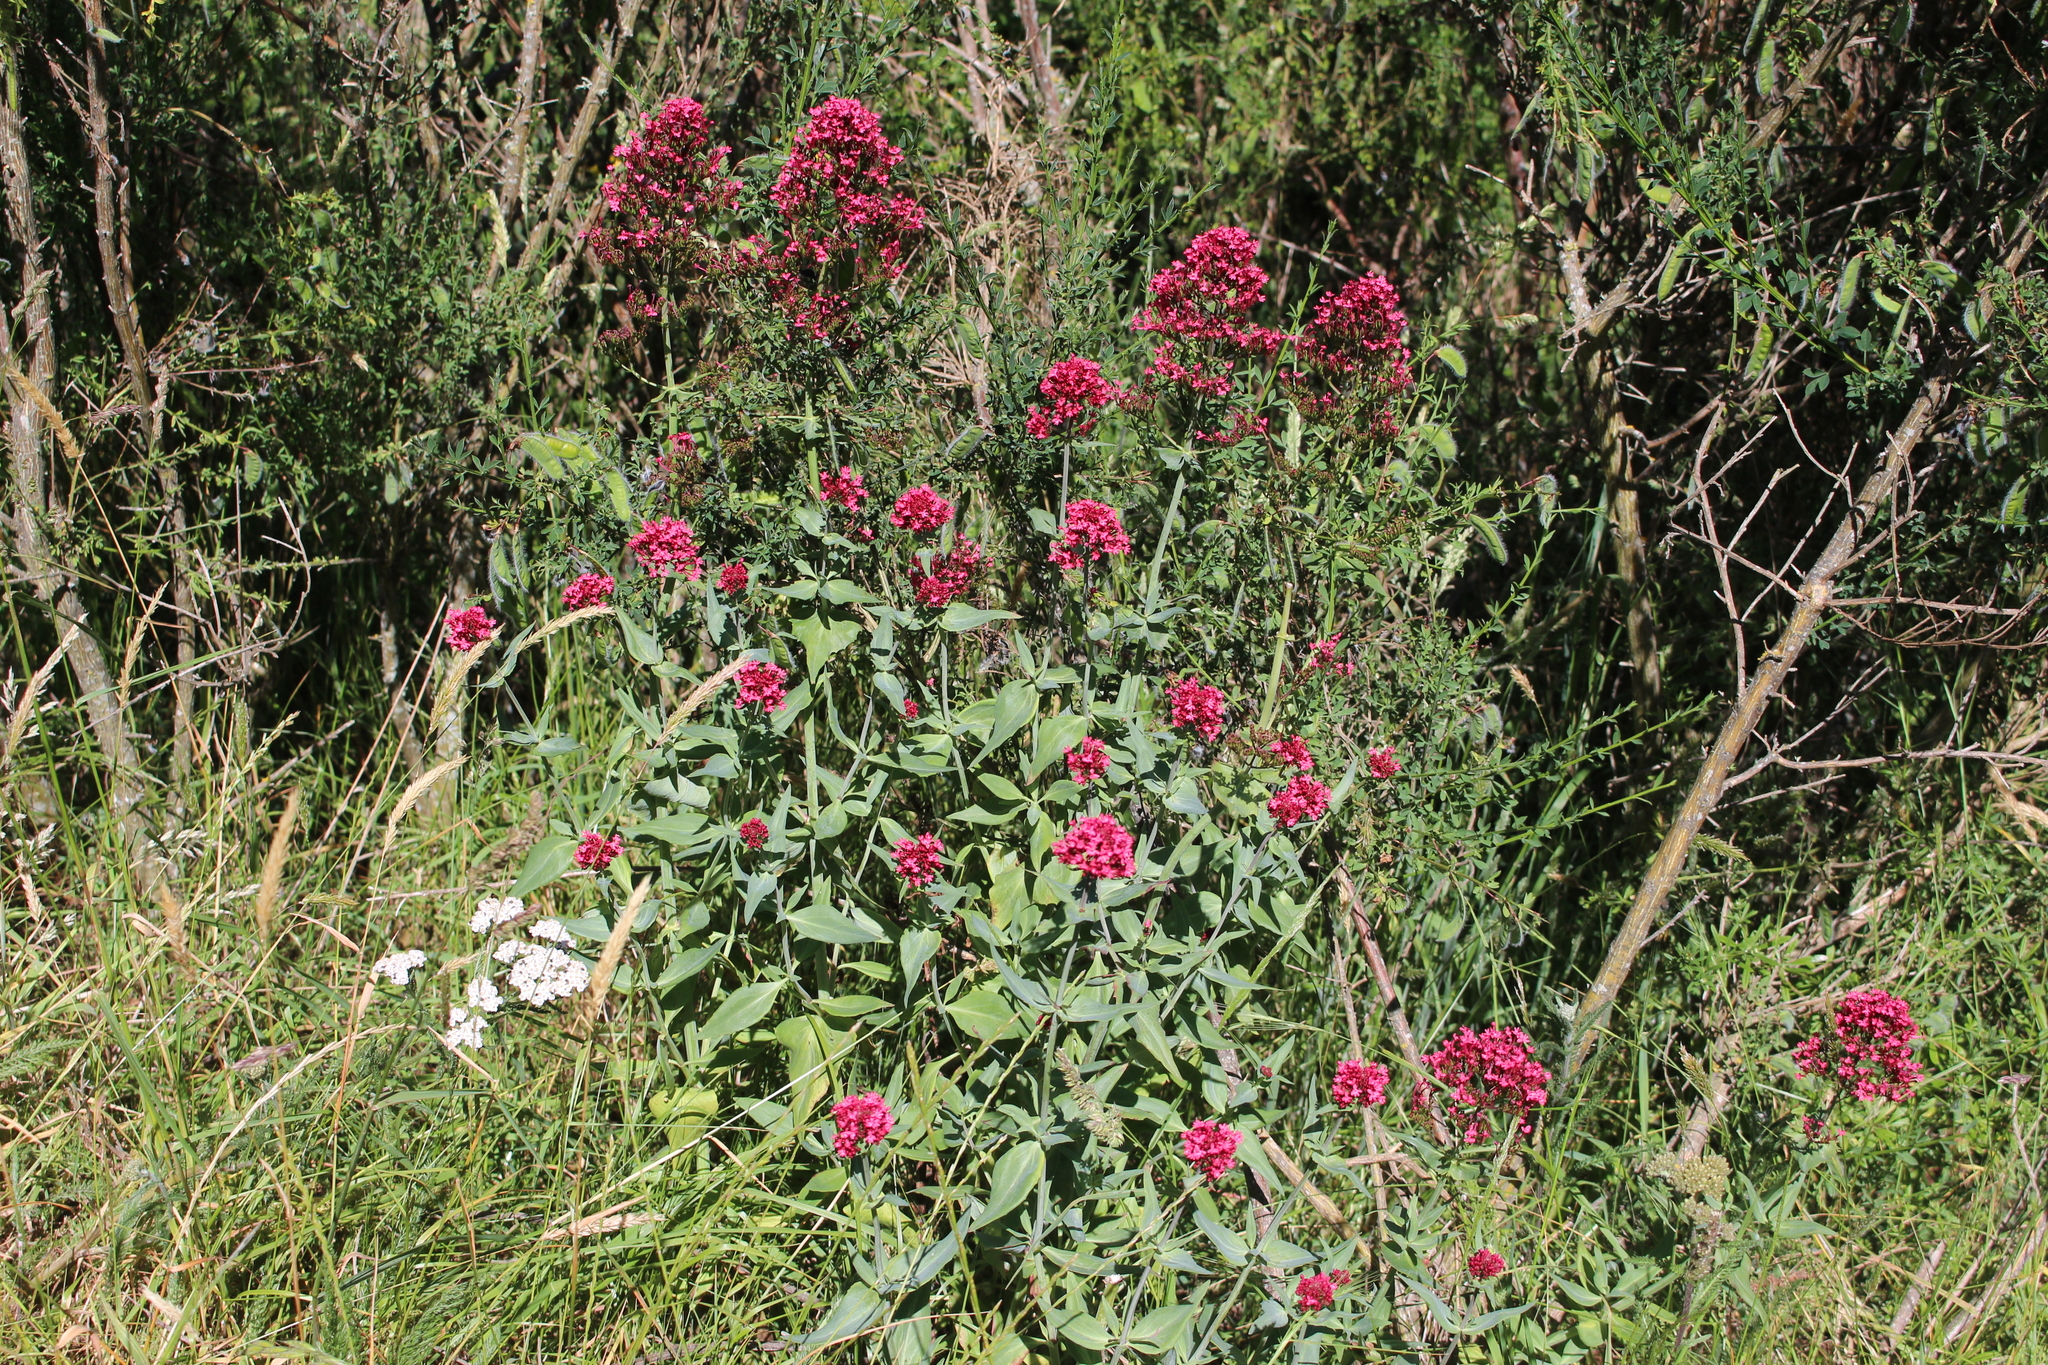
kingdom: Plantae
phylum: Tracheophyta
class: Magnoliopsida
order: Dipsacales
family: Caprifoliaceae
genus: Centranthus
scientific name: Centranthus ruber
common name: Red valerian
